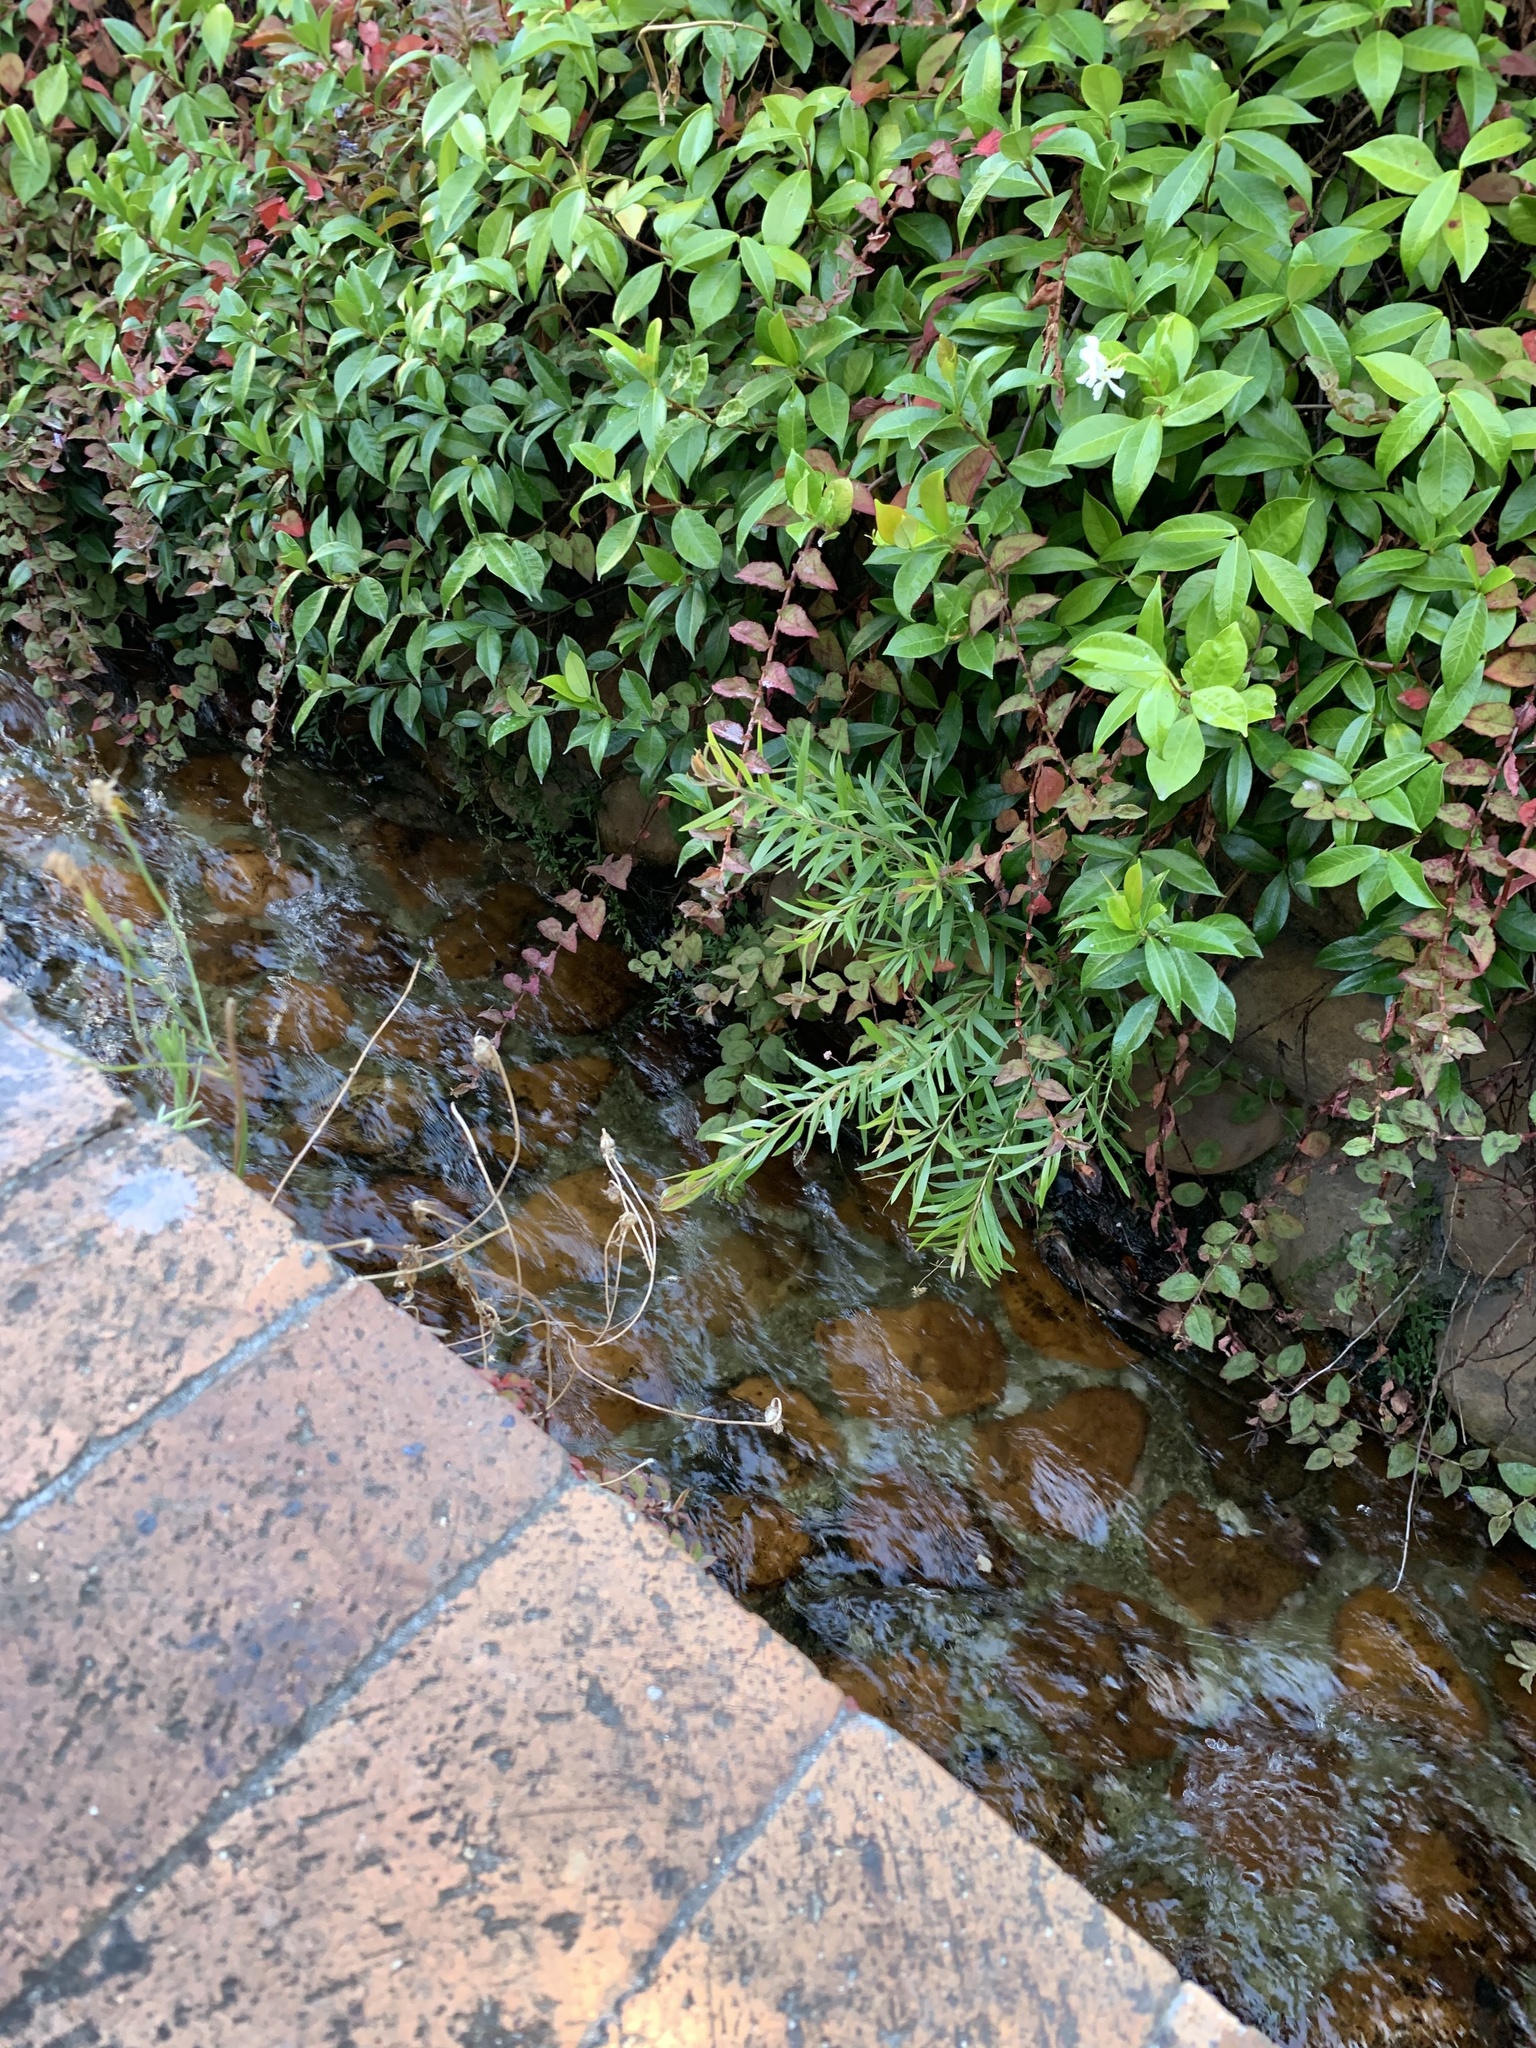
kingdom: Plantae
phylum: Tracheophyta
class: Magnoliopsida
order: Myrtales
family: Myrtaceae
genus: Callistemon
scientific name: Callistemon viminalis
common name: Drooping bottlebrush
